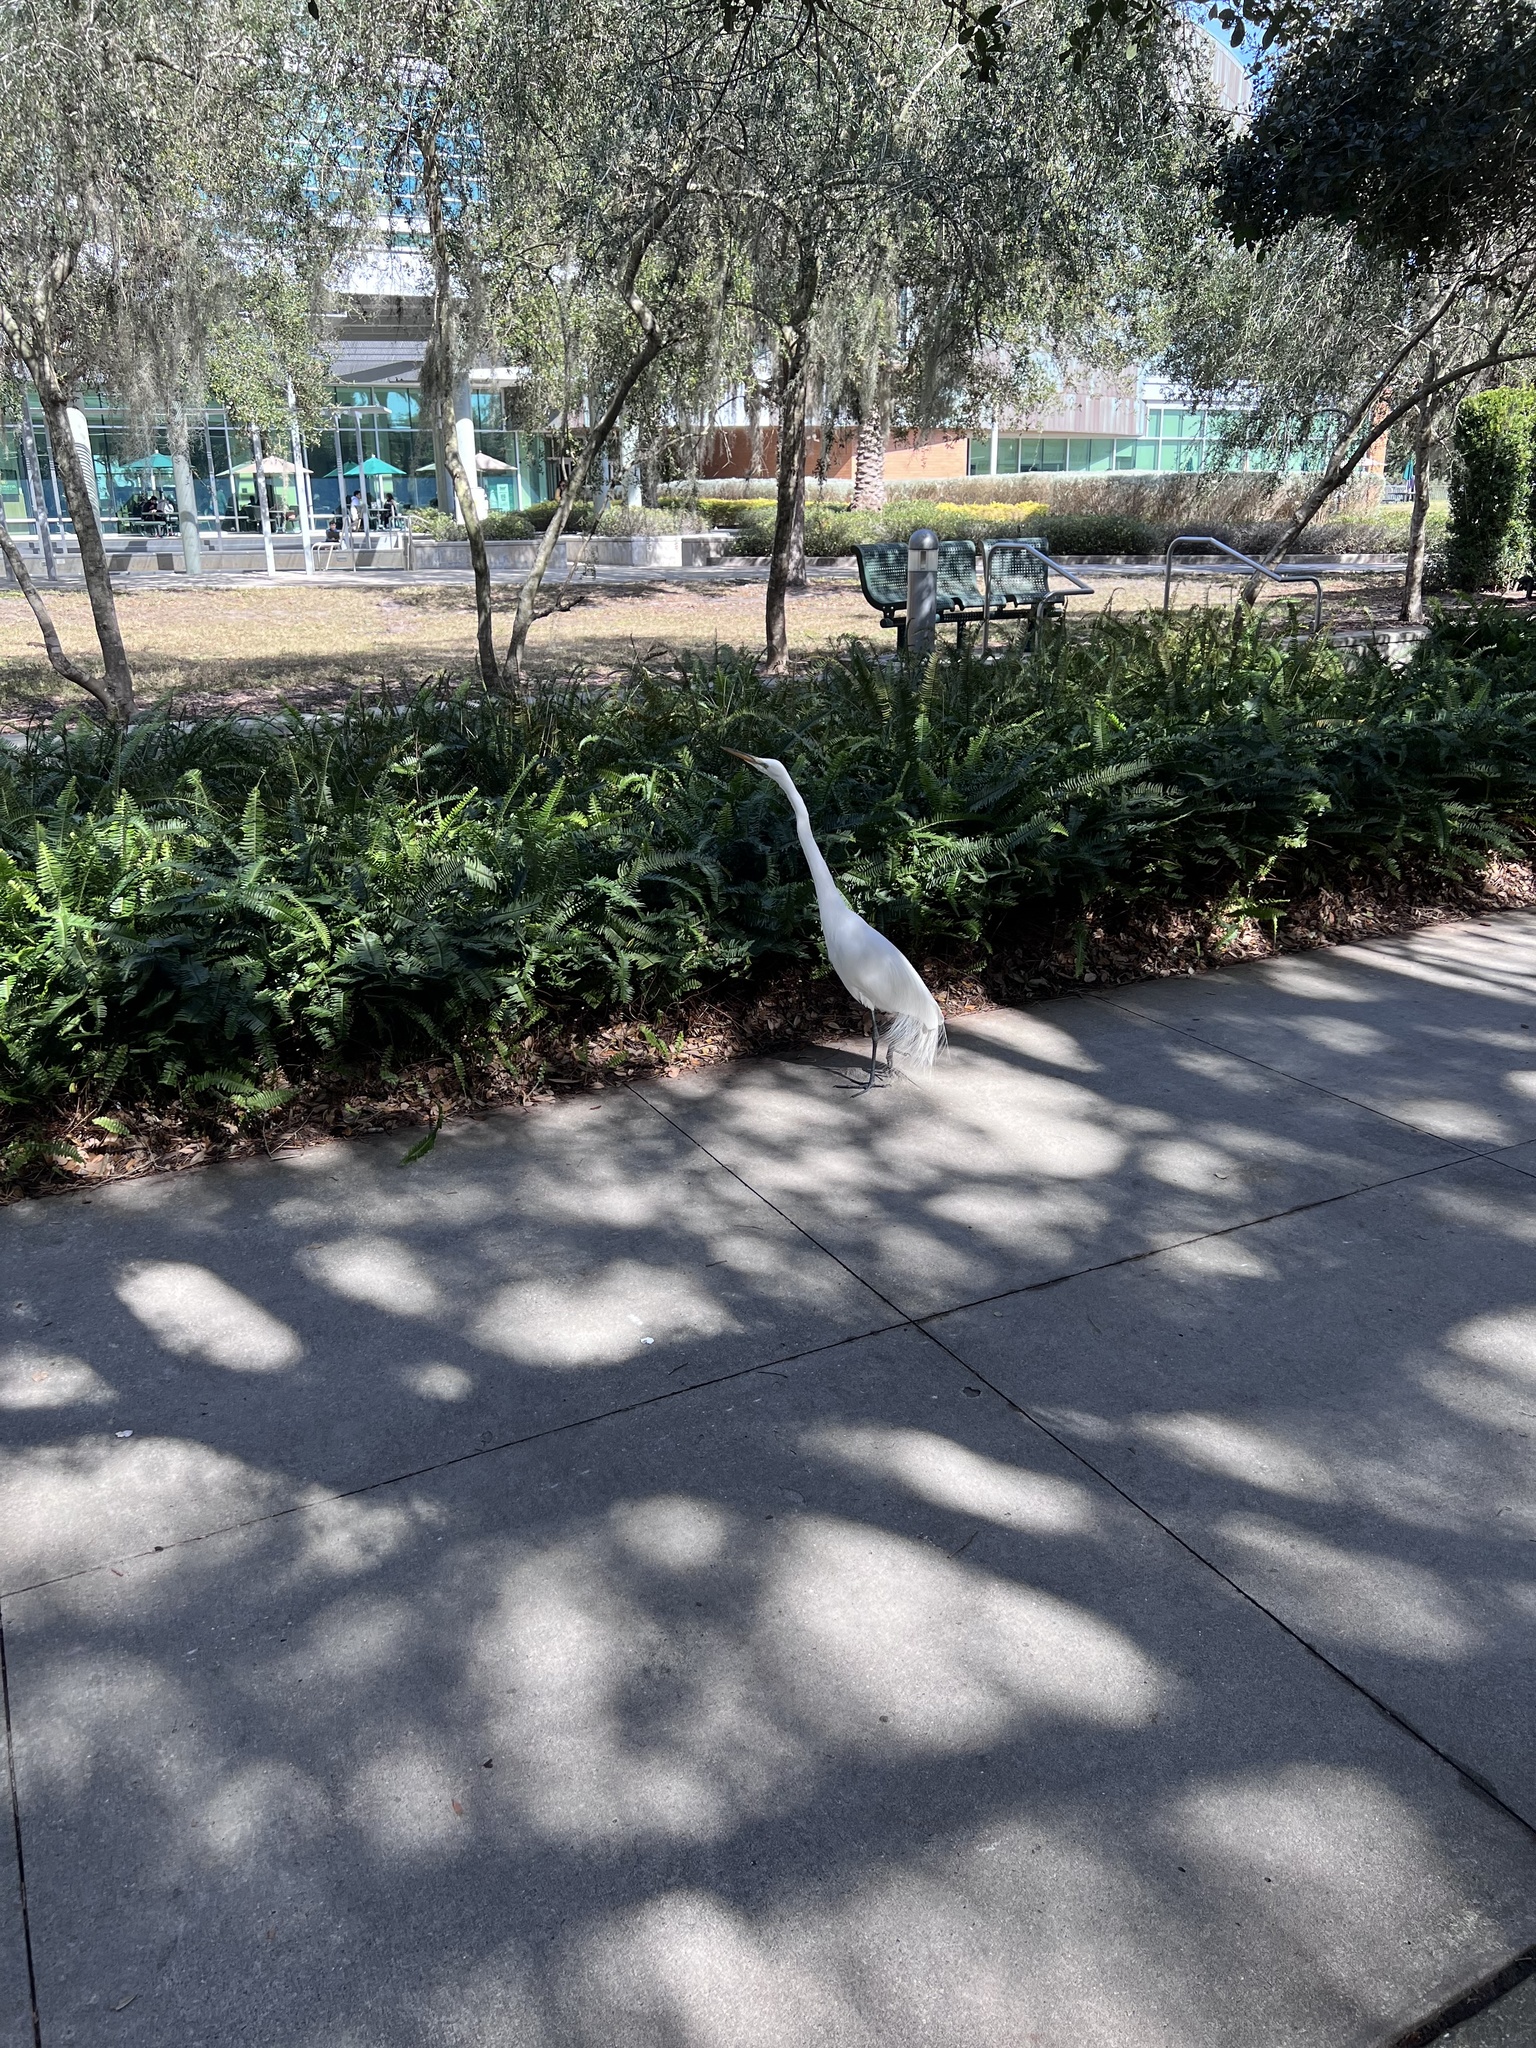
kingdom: Animalia
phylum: Chordata
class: Aves
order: Pelecaniformes
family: Ardeidae
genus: Ardea
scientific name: Ardea alba
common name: Great egret
